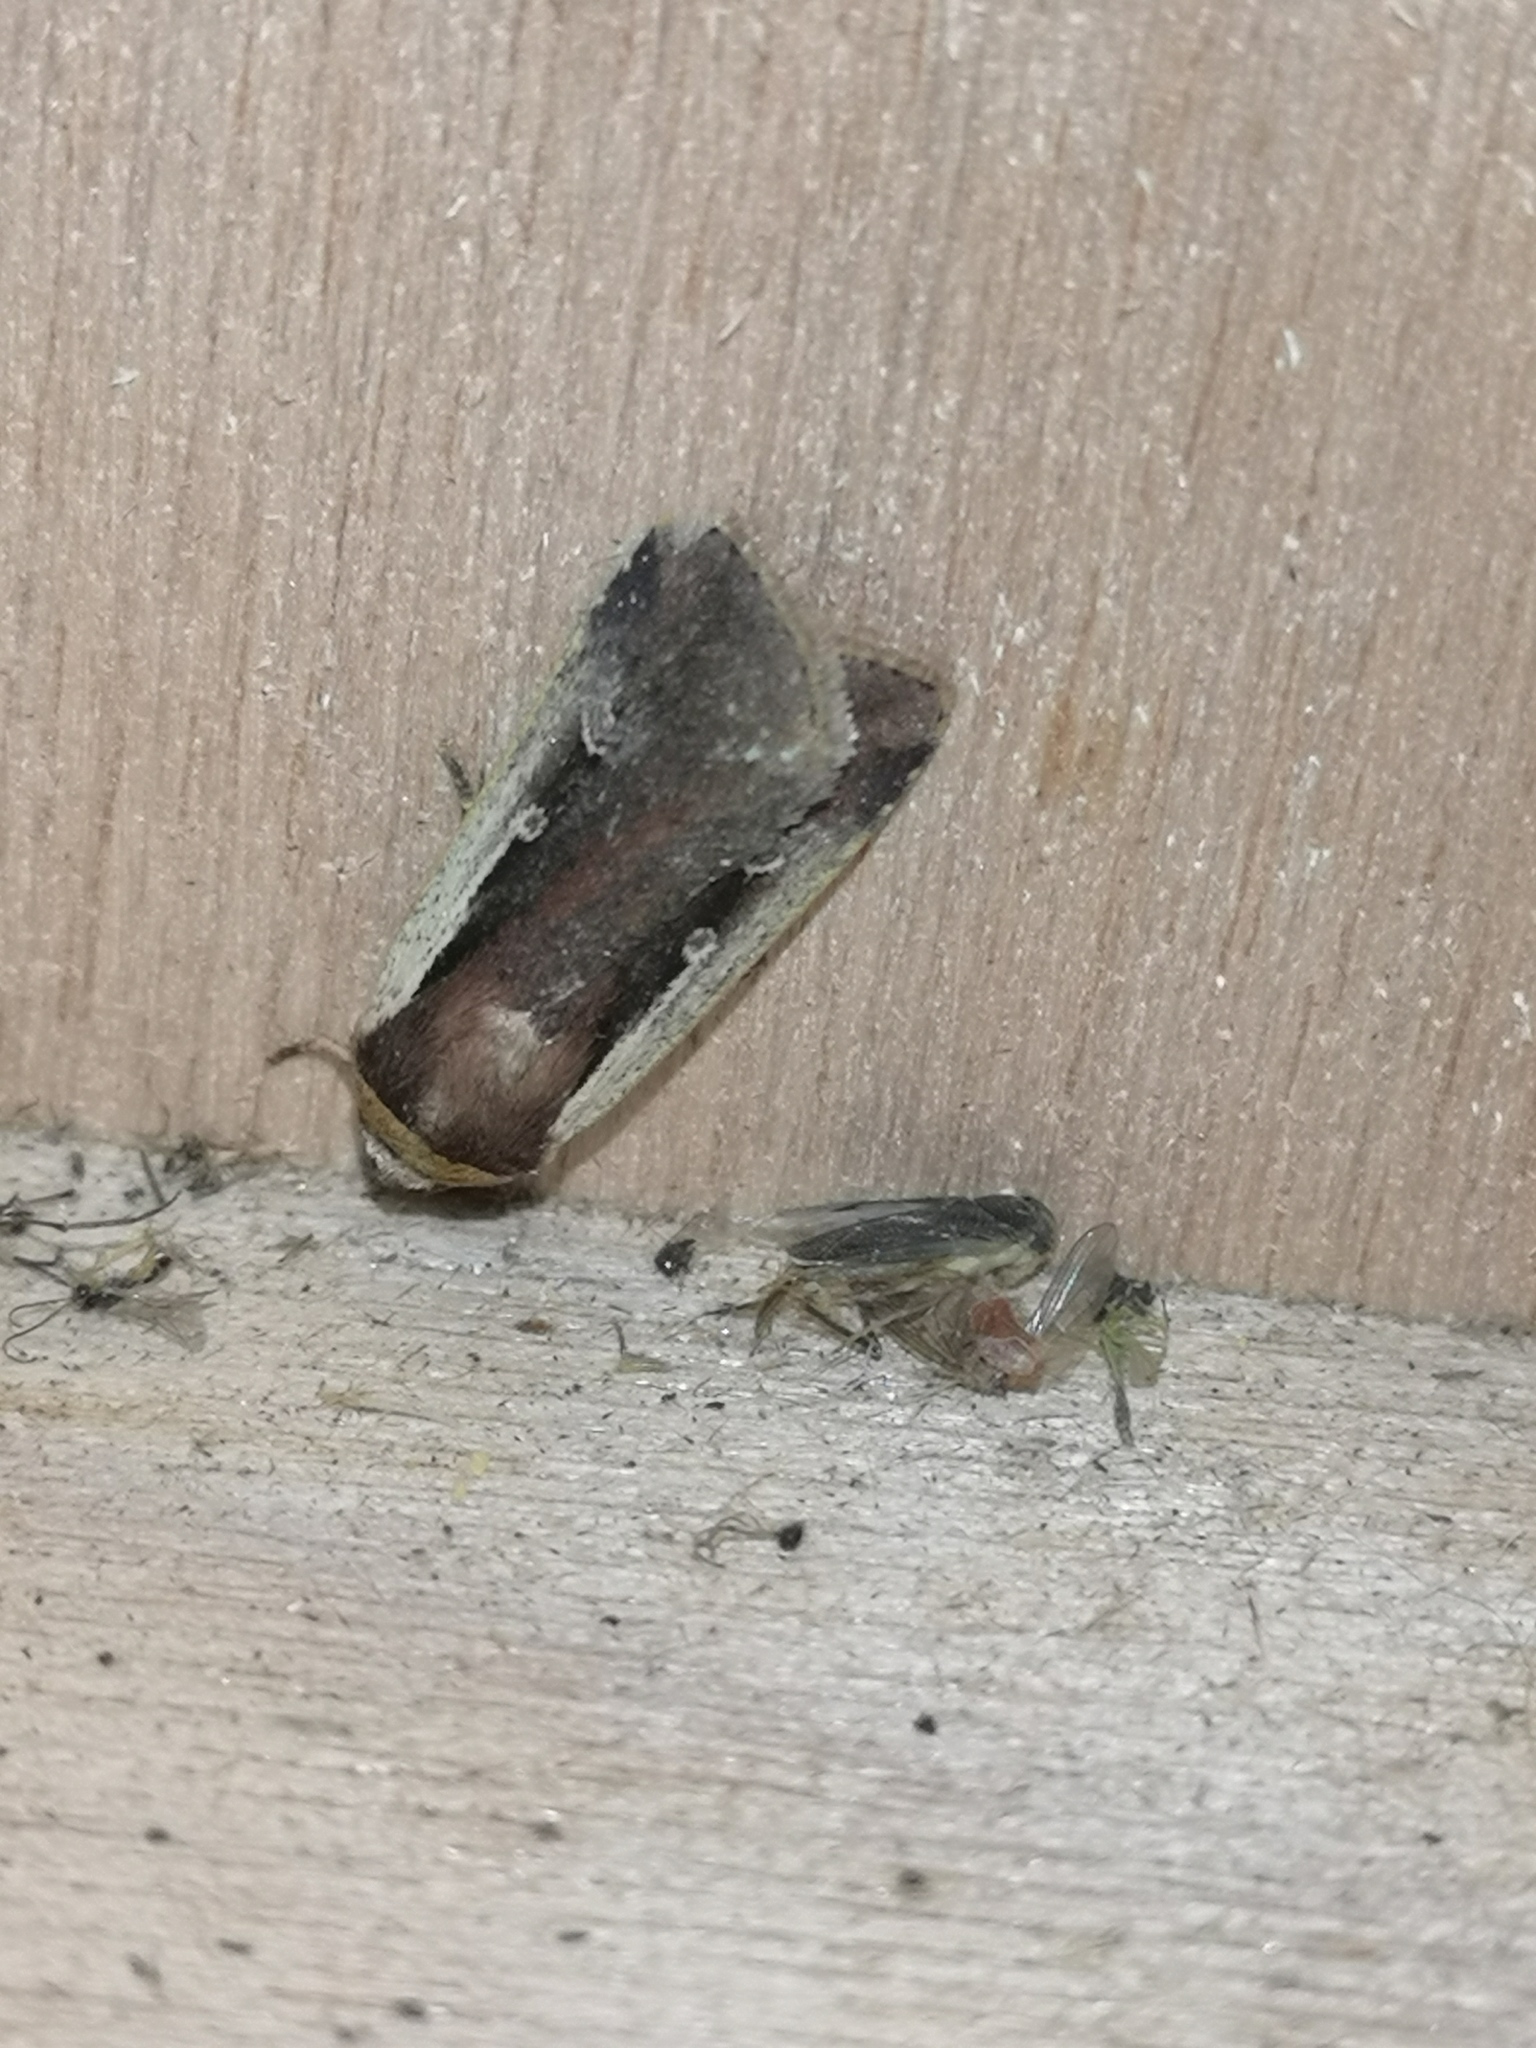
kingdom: Animalia
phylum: Arthropoda
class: Insecta
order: Lepidoptera
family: Noctuidae
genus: Ochropleura
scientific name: Ochropleura plecta
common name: Flame shoulder
